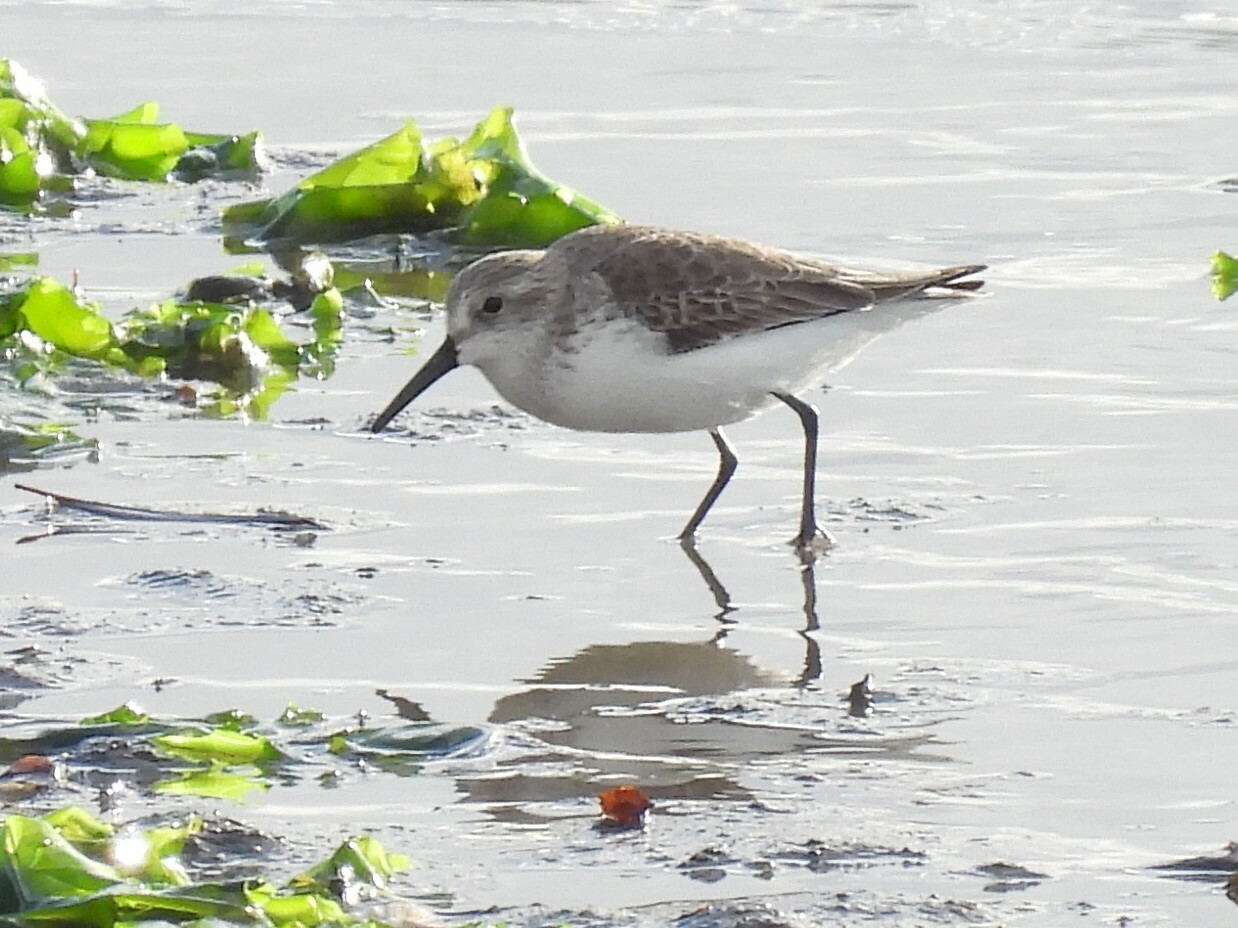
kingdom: Animalia
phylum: Chordata
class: Aves
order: Charadriiformes
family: Scolopacidae
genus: Calidris
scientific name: Calidris mauri
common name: Western sandpiper
